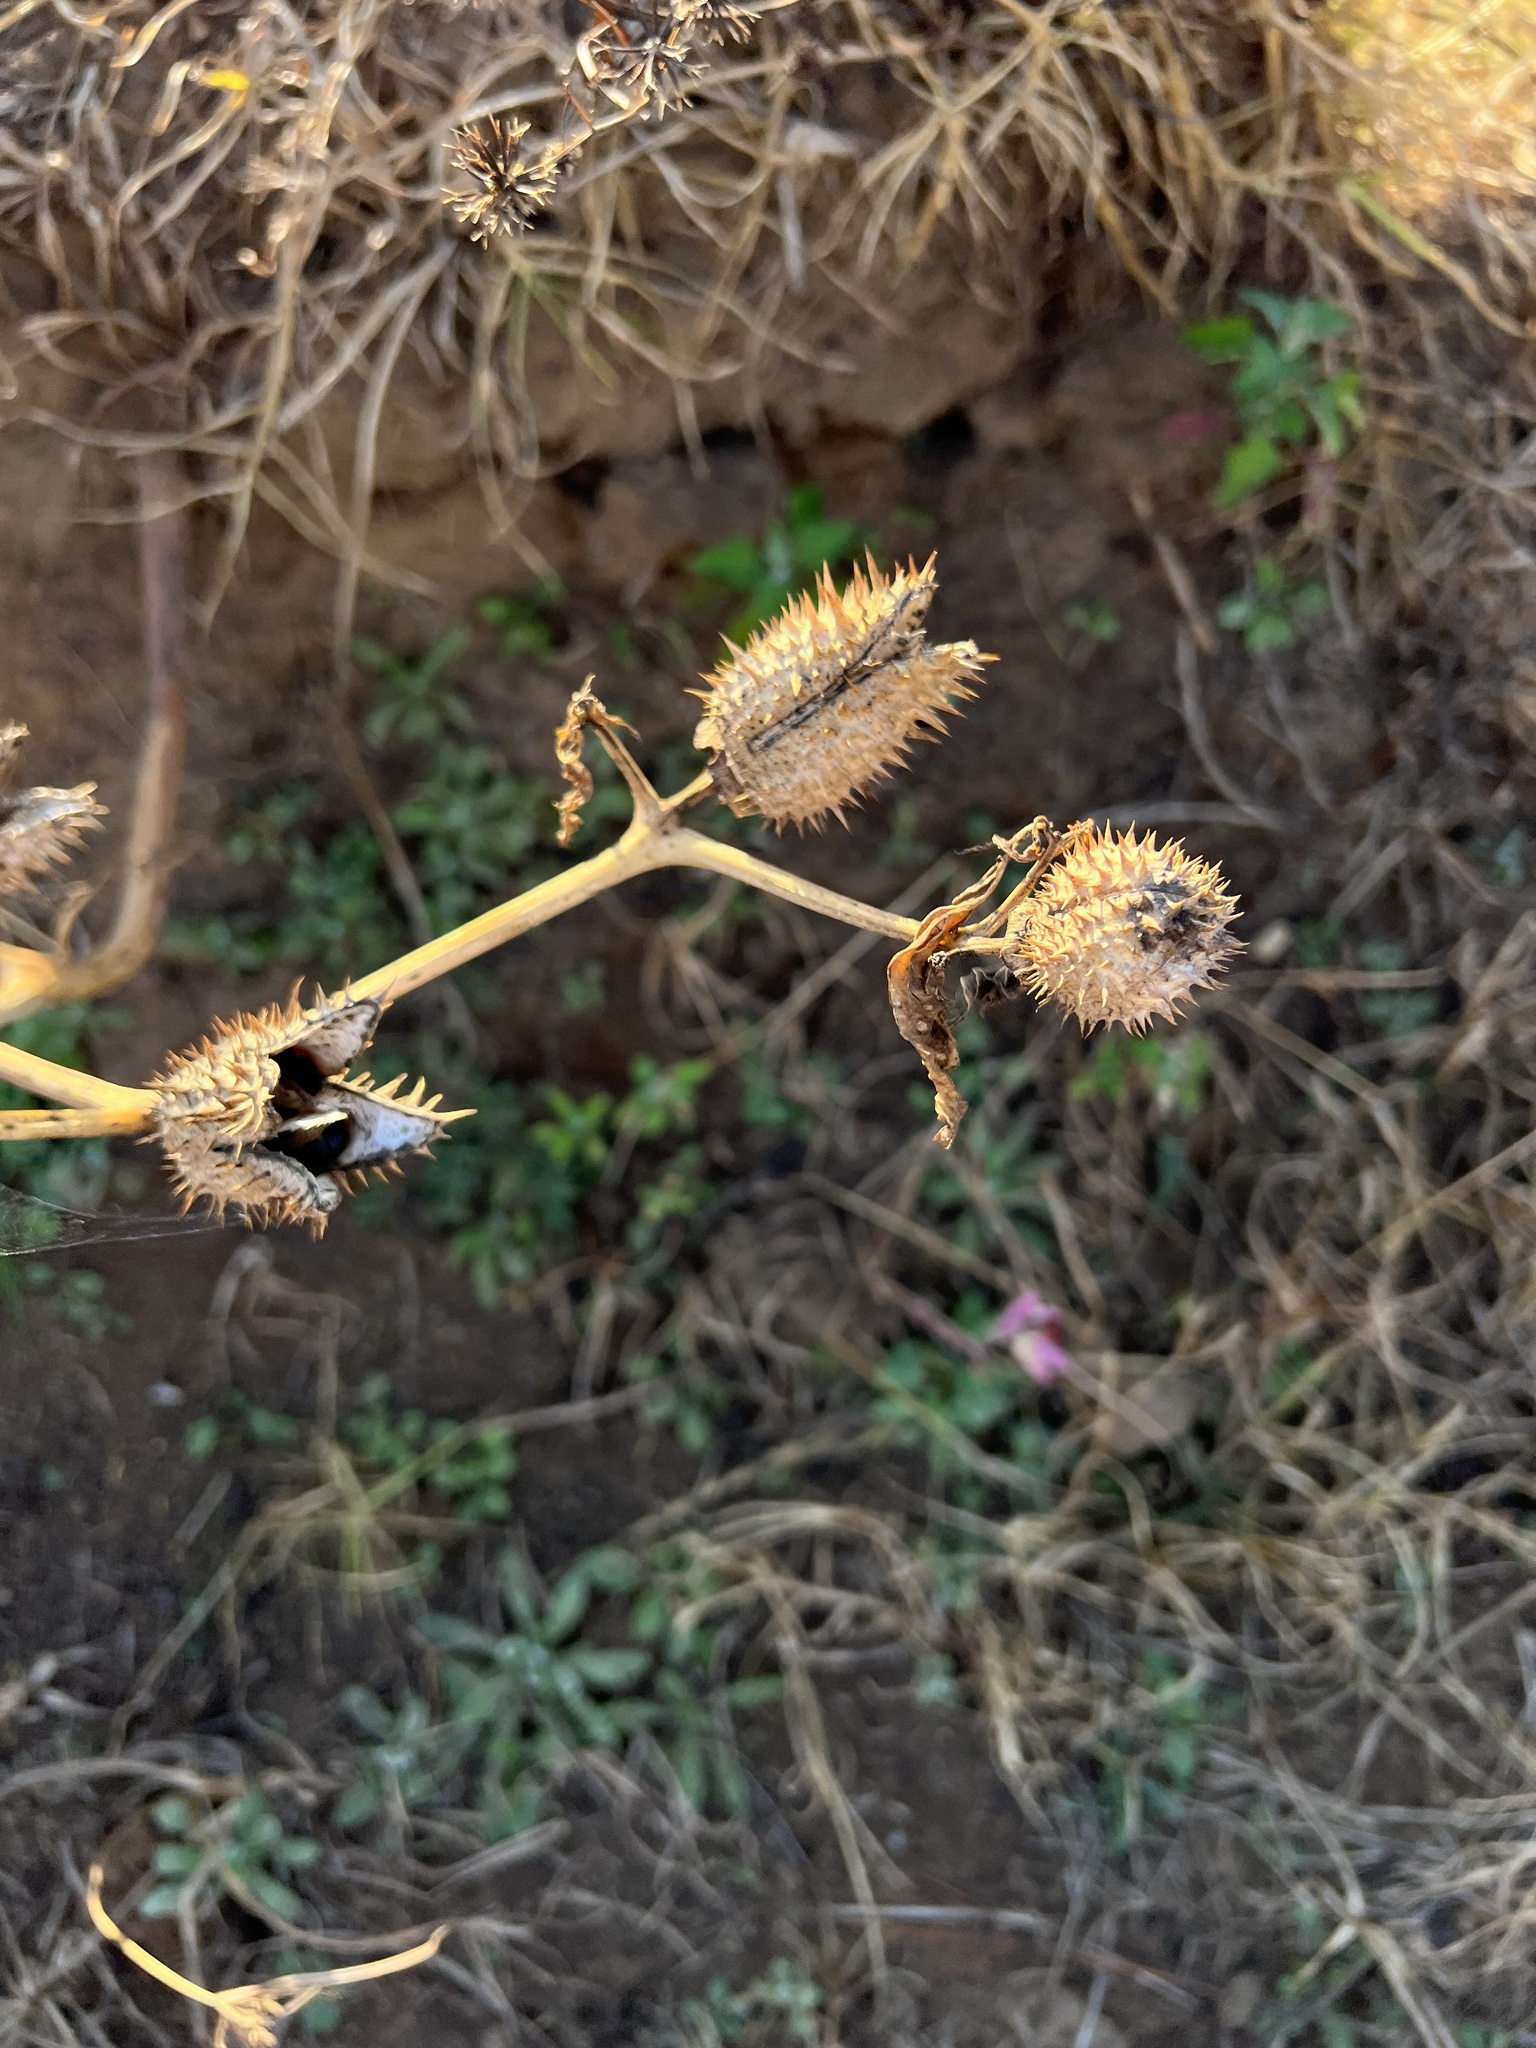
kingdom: Plantae
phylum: Tracheophyta
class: Magnoliopsida
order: Solanales
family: Solanaceae
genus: Datura
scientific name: Datura stramonium
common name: Thorn-apple
